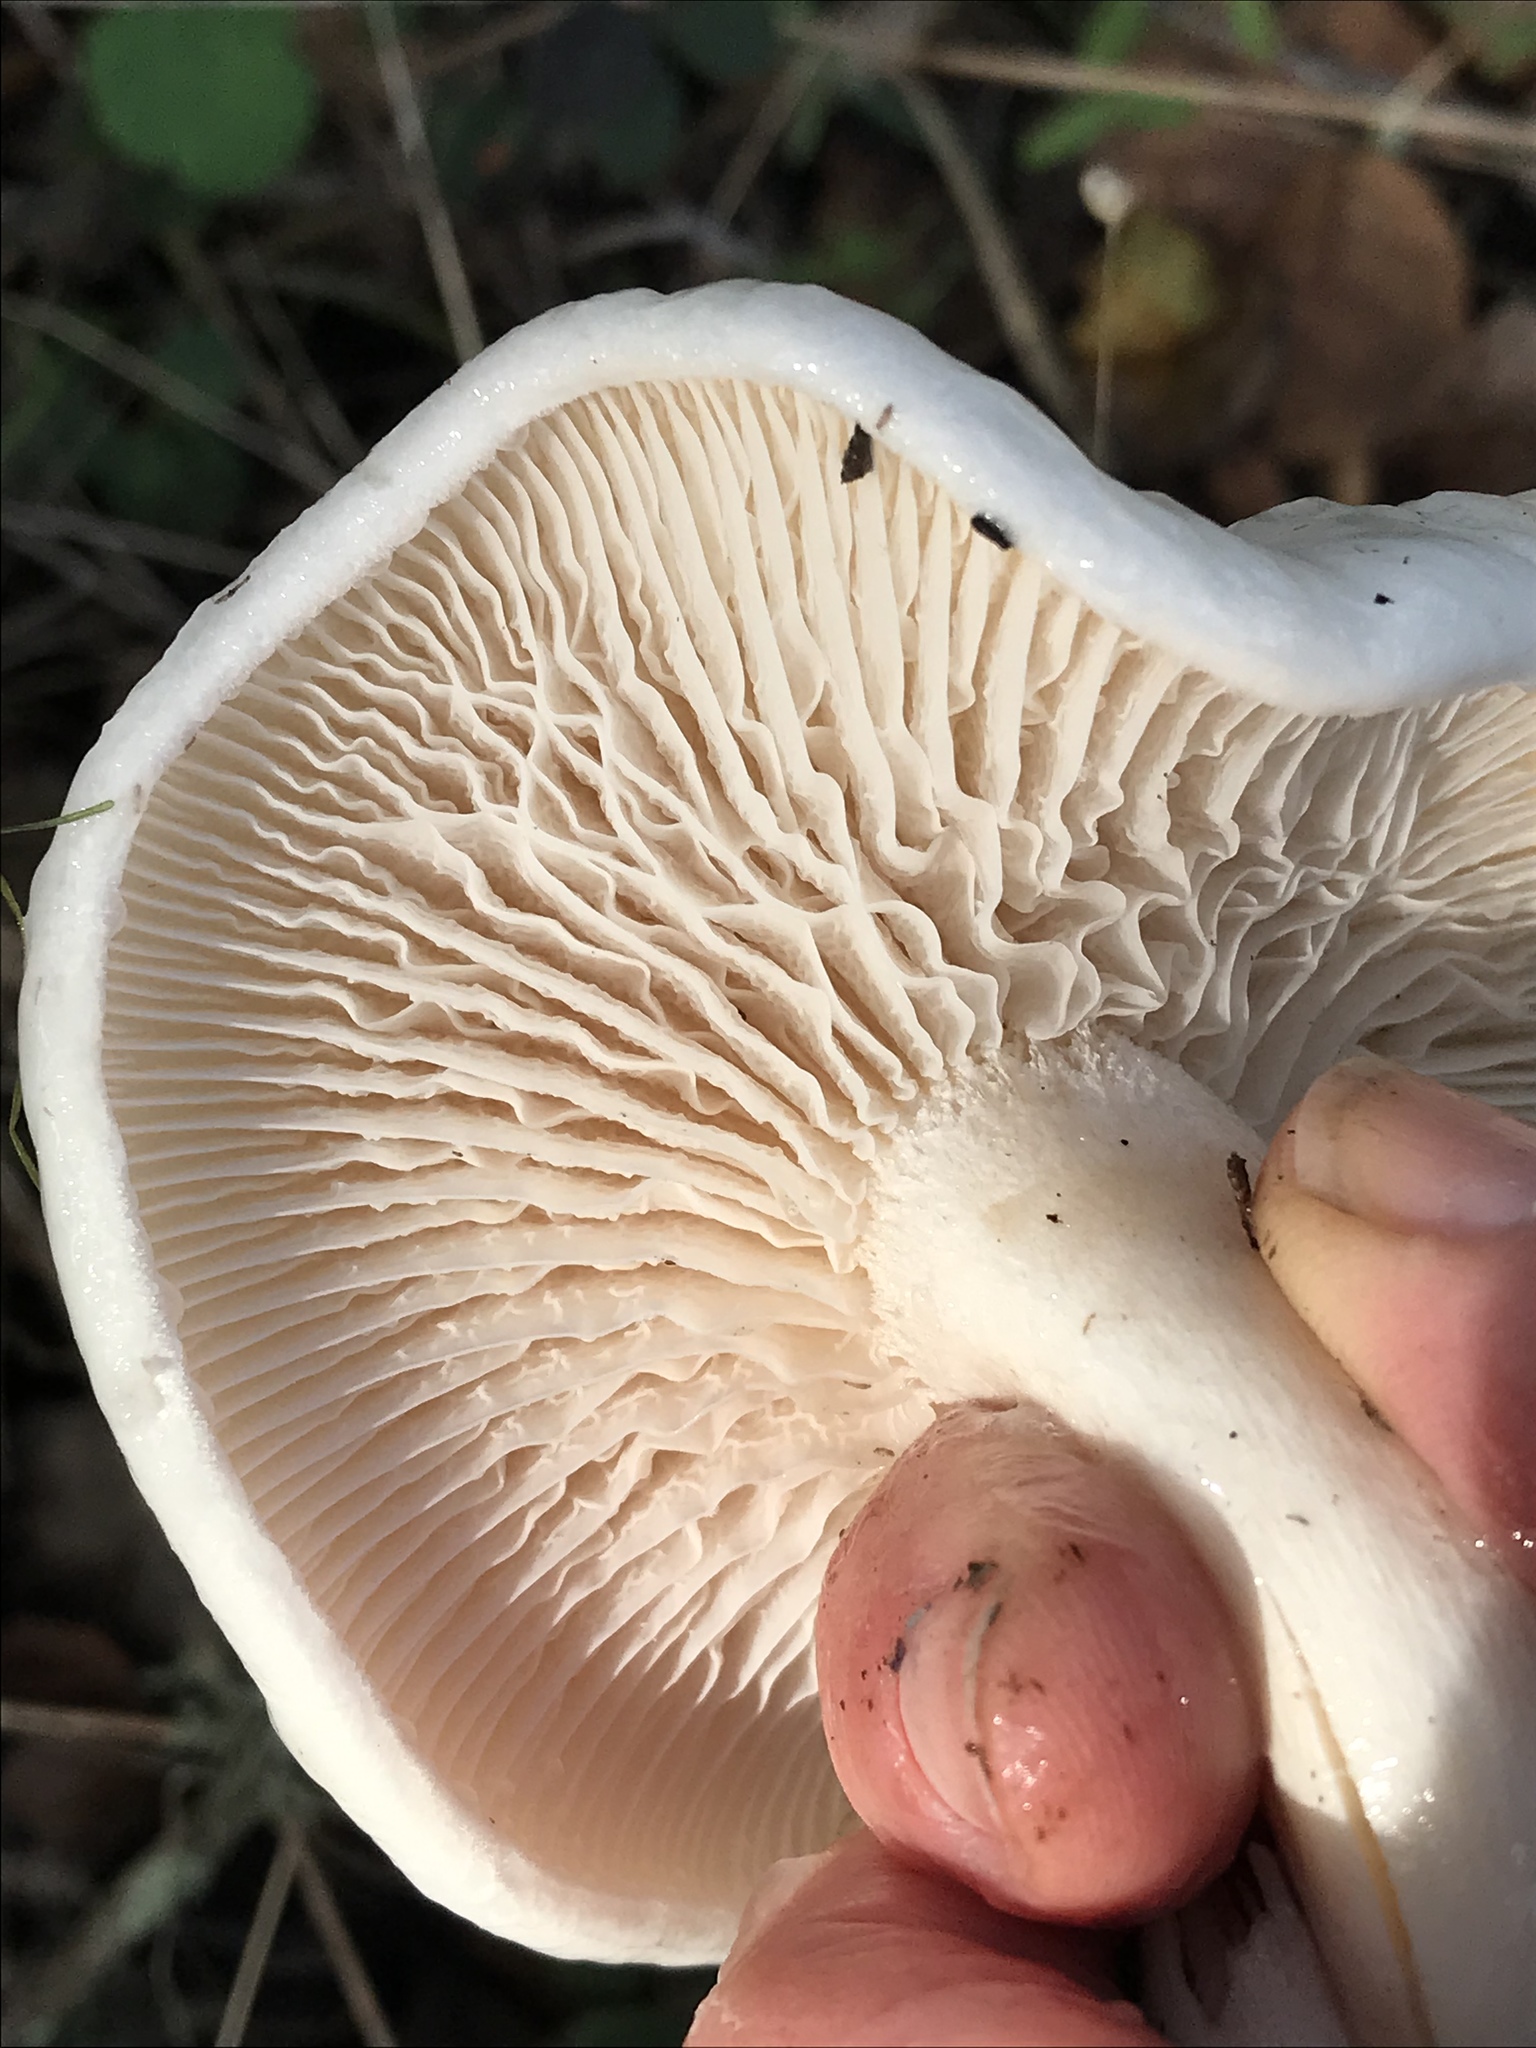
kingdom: Fungi
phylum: Basidiomycota
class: Agaricomycetes
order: Agaricales
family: Hygrophoraceae
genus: Hygrophorus
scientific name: Hygrophorus eburneus
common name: Ivory wax-cap
